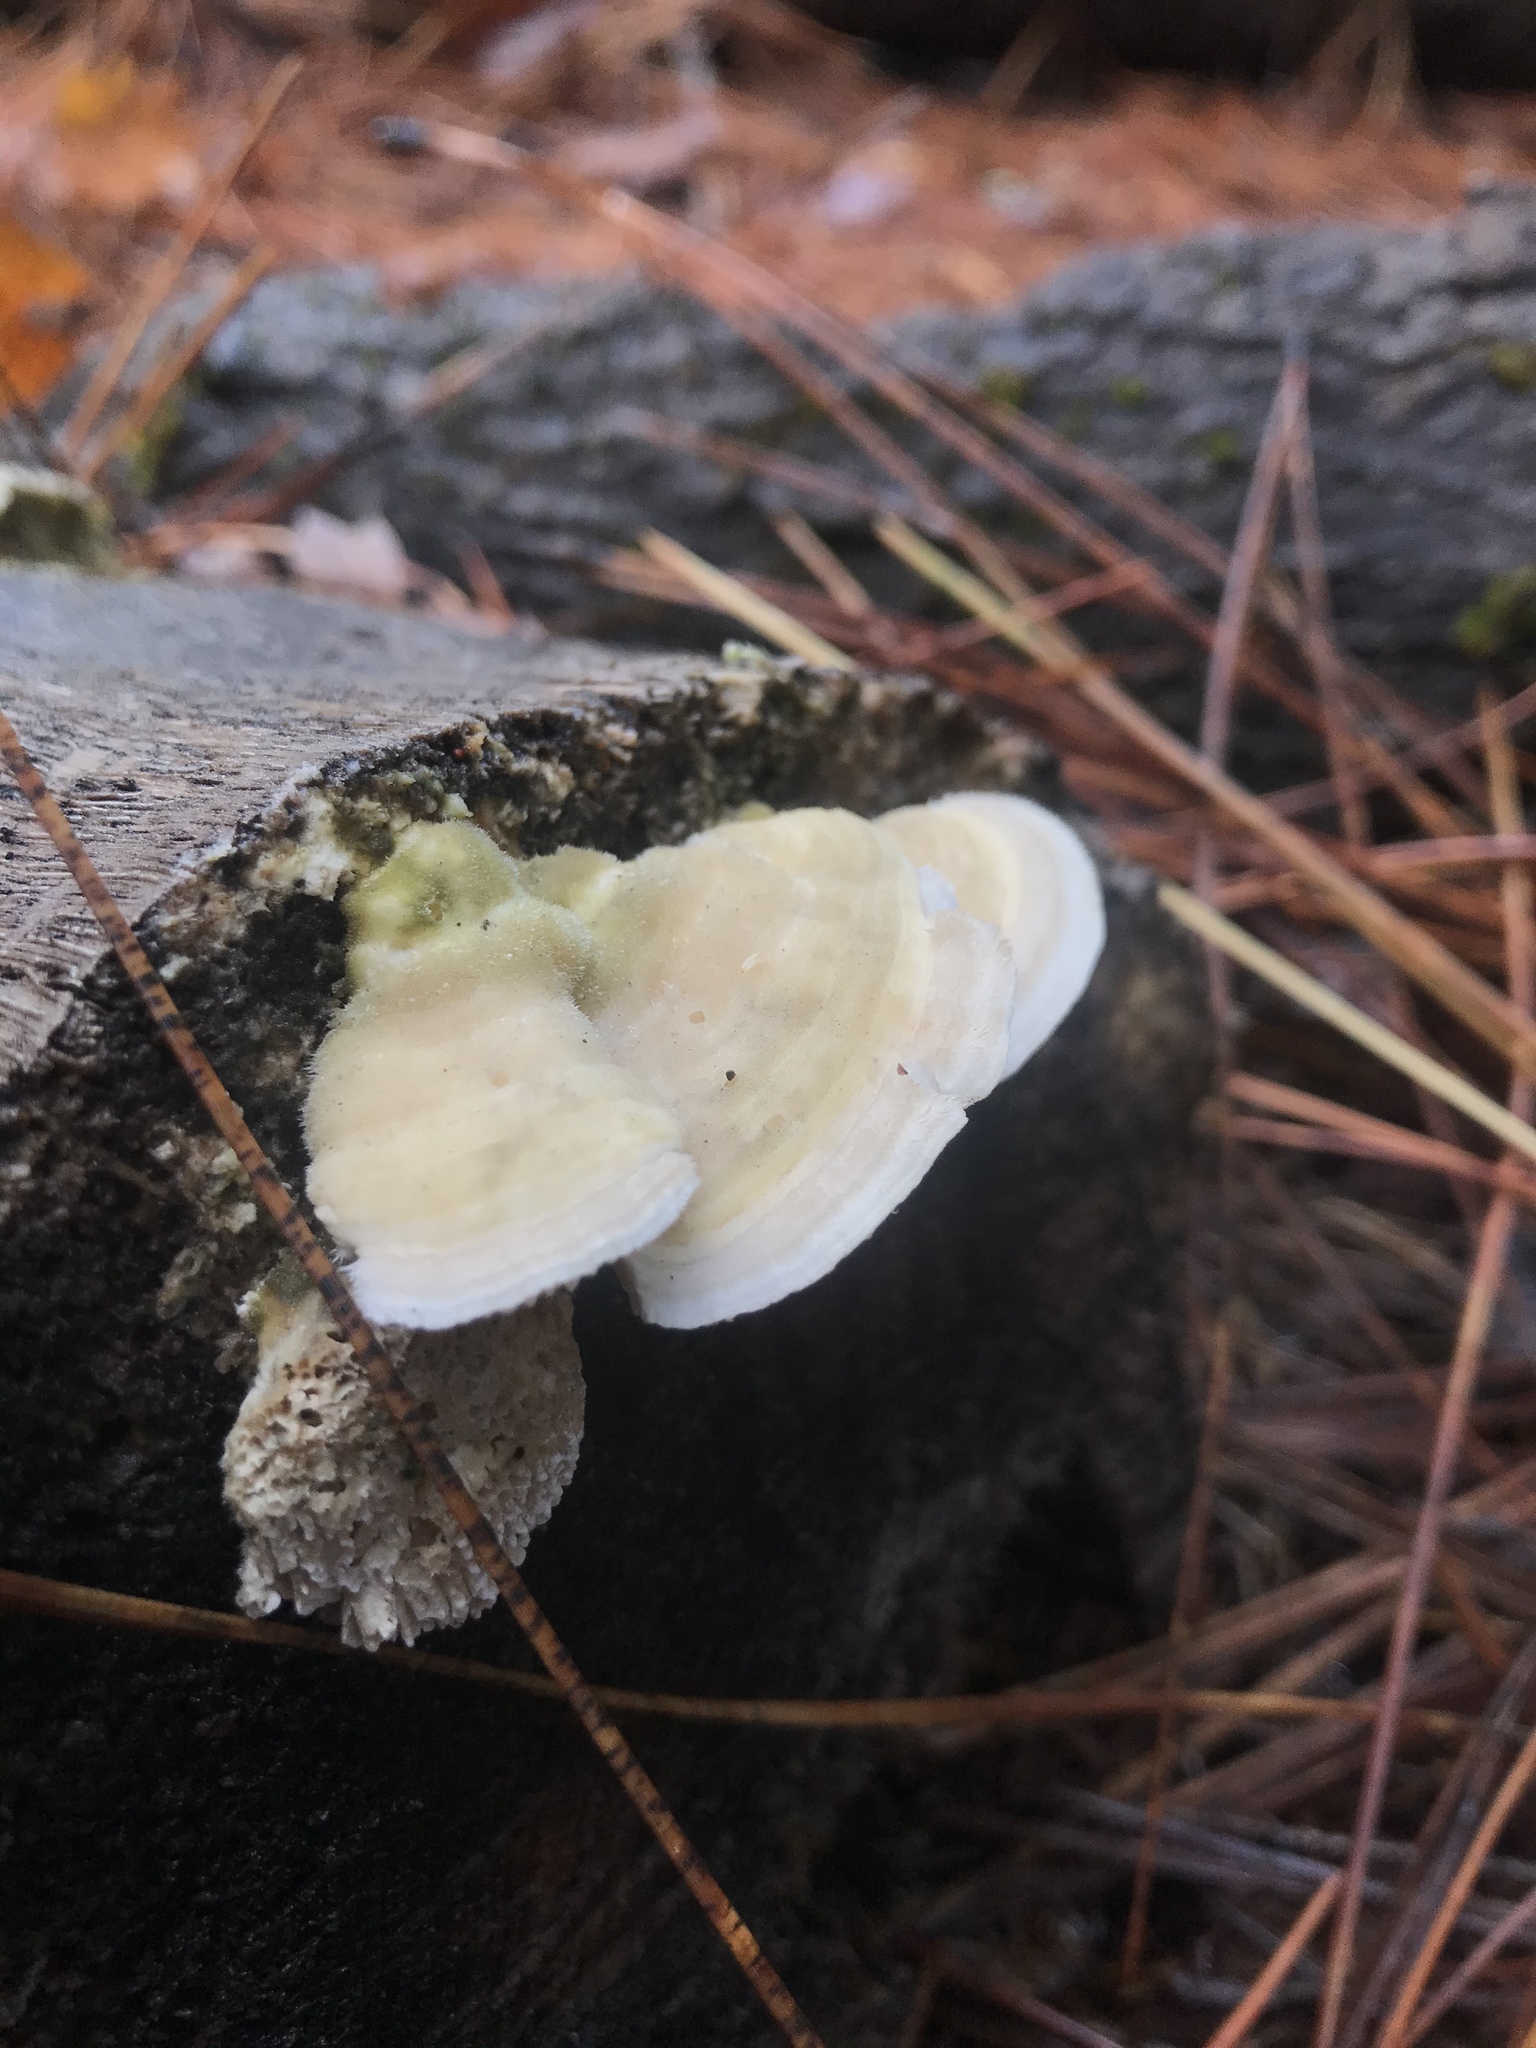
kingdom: Fungi
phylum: Basidiomycota
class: Agaricomycetes
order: Polyporales
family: Polyporaceae
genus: Lenzites
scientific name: Lenzites betulinus
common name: Birch mazegill
